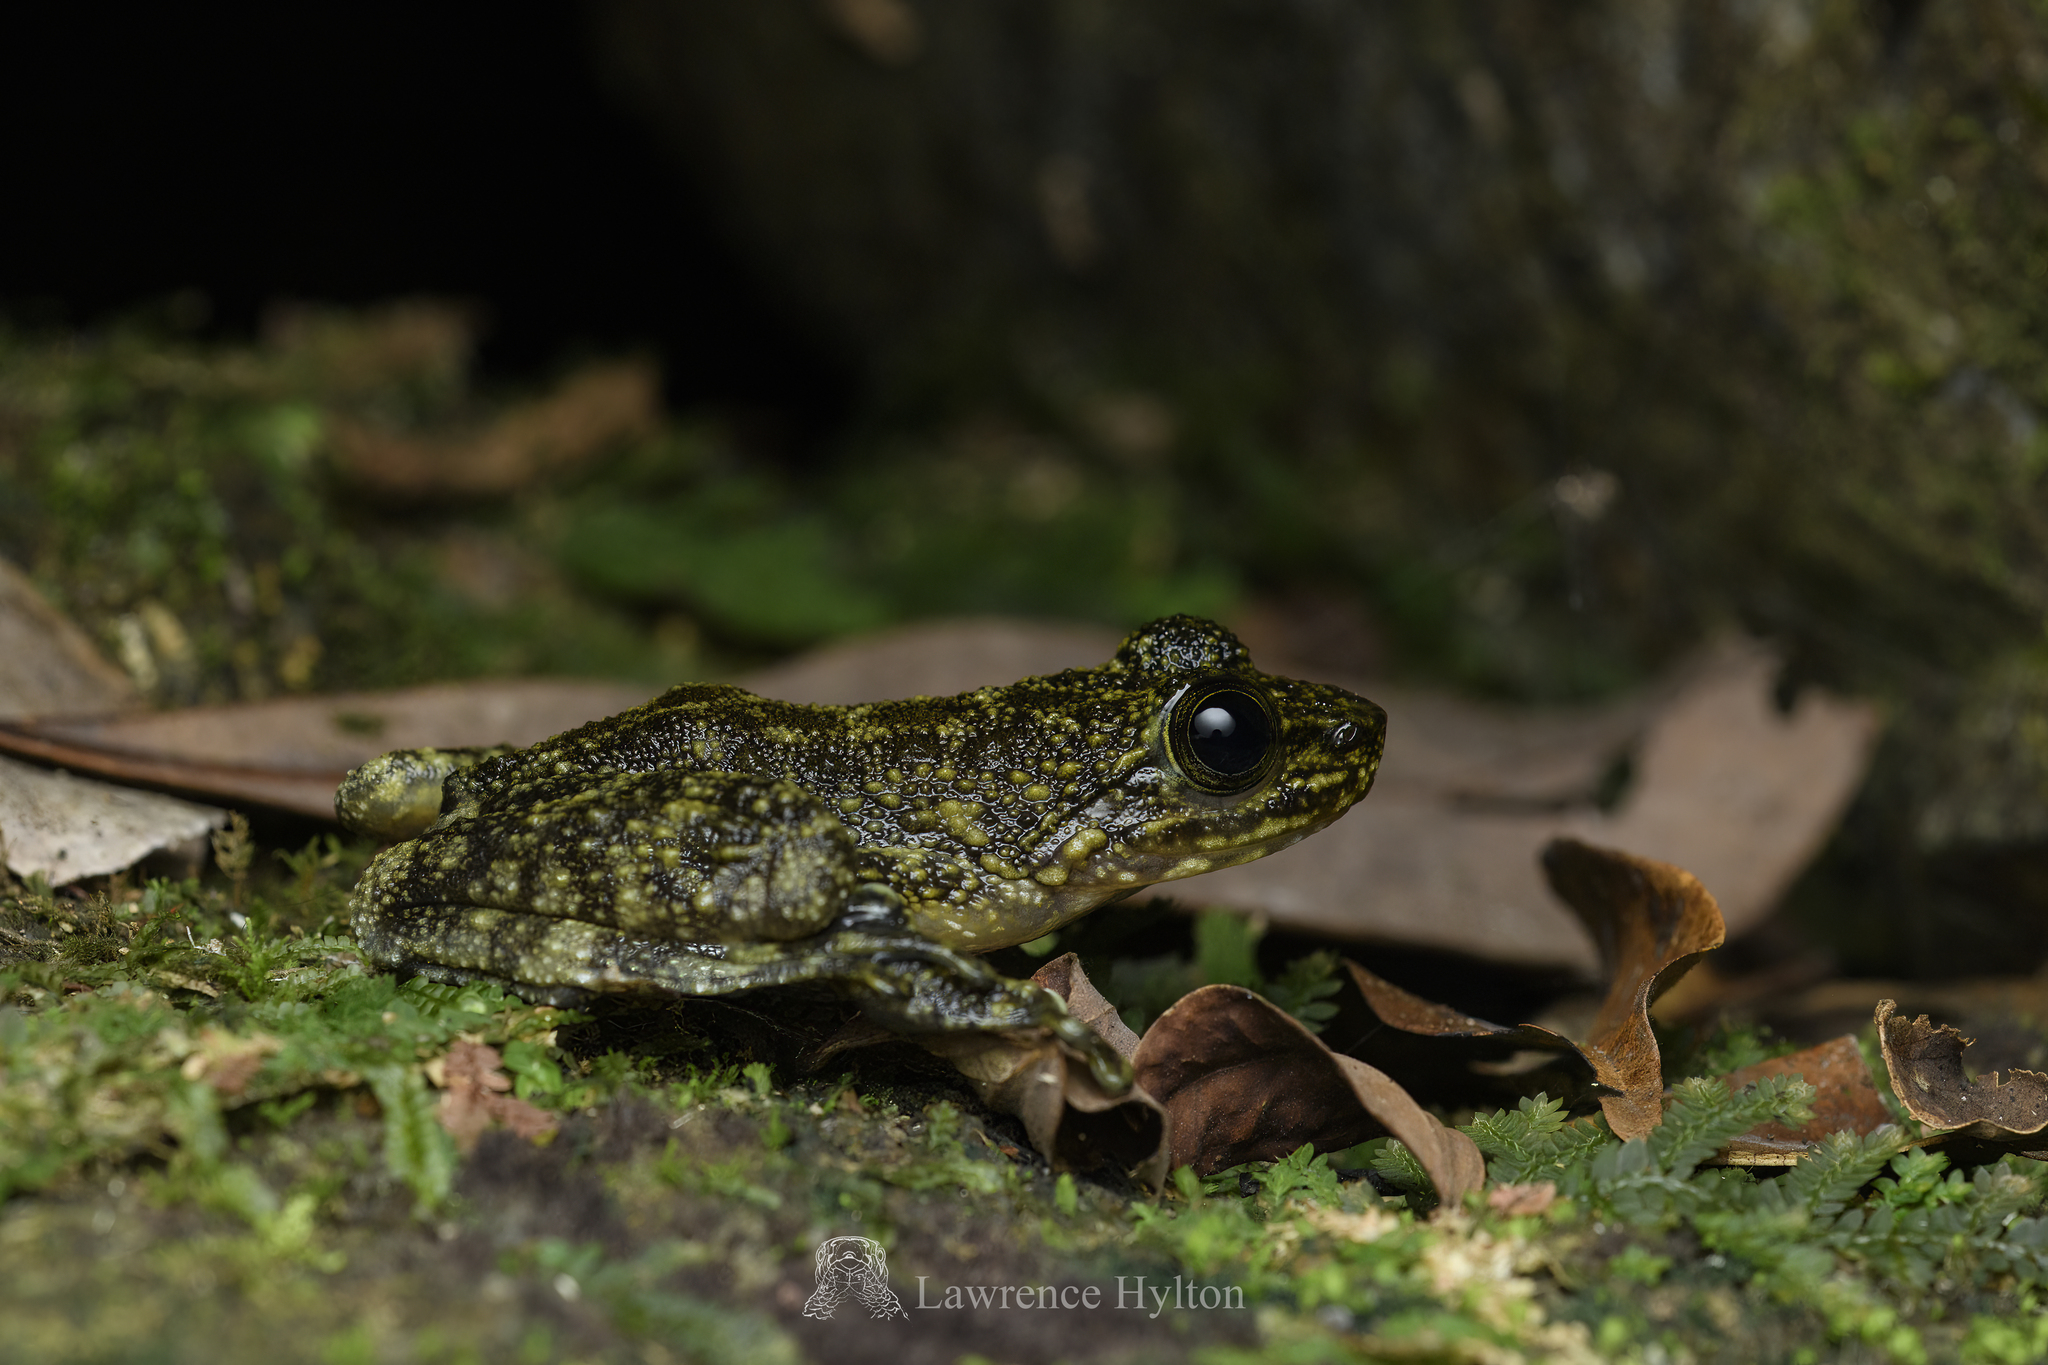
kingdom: Animalia
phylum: Chordata
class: Amphibia
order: Anura
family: Ranidae
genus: Amolops
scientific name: Amolops hongkongensis
